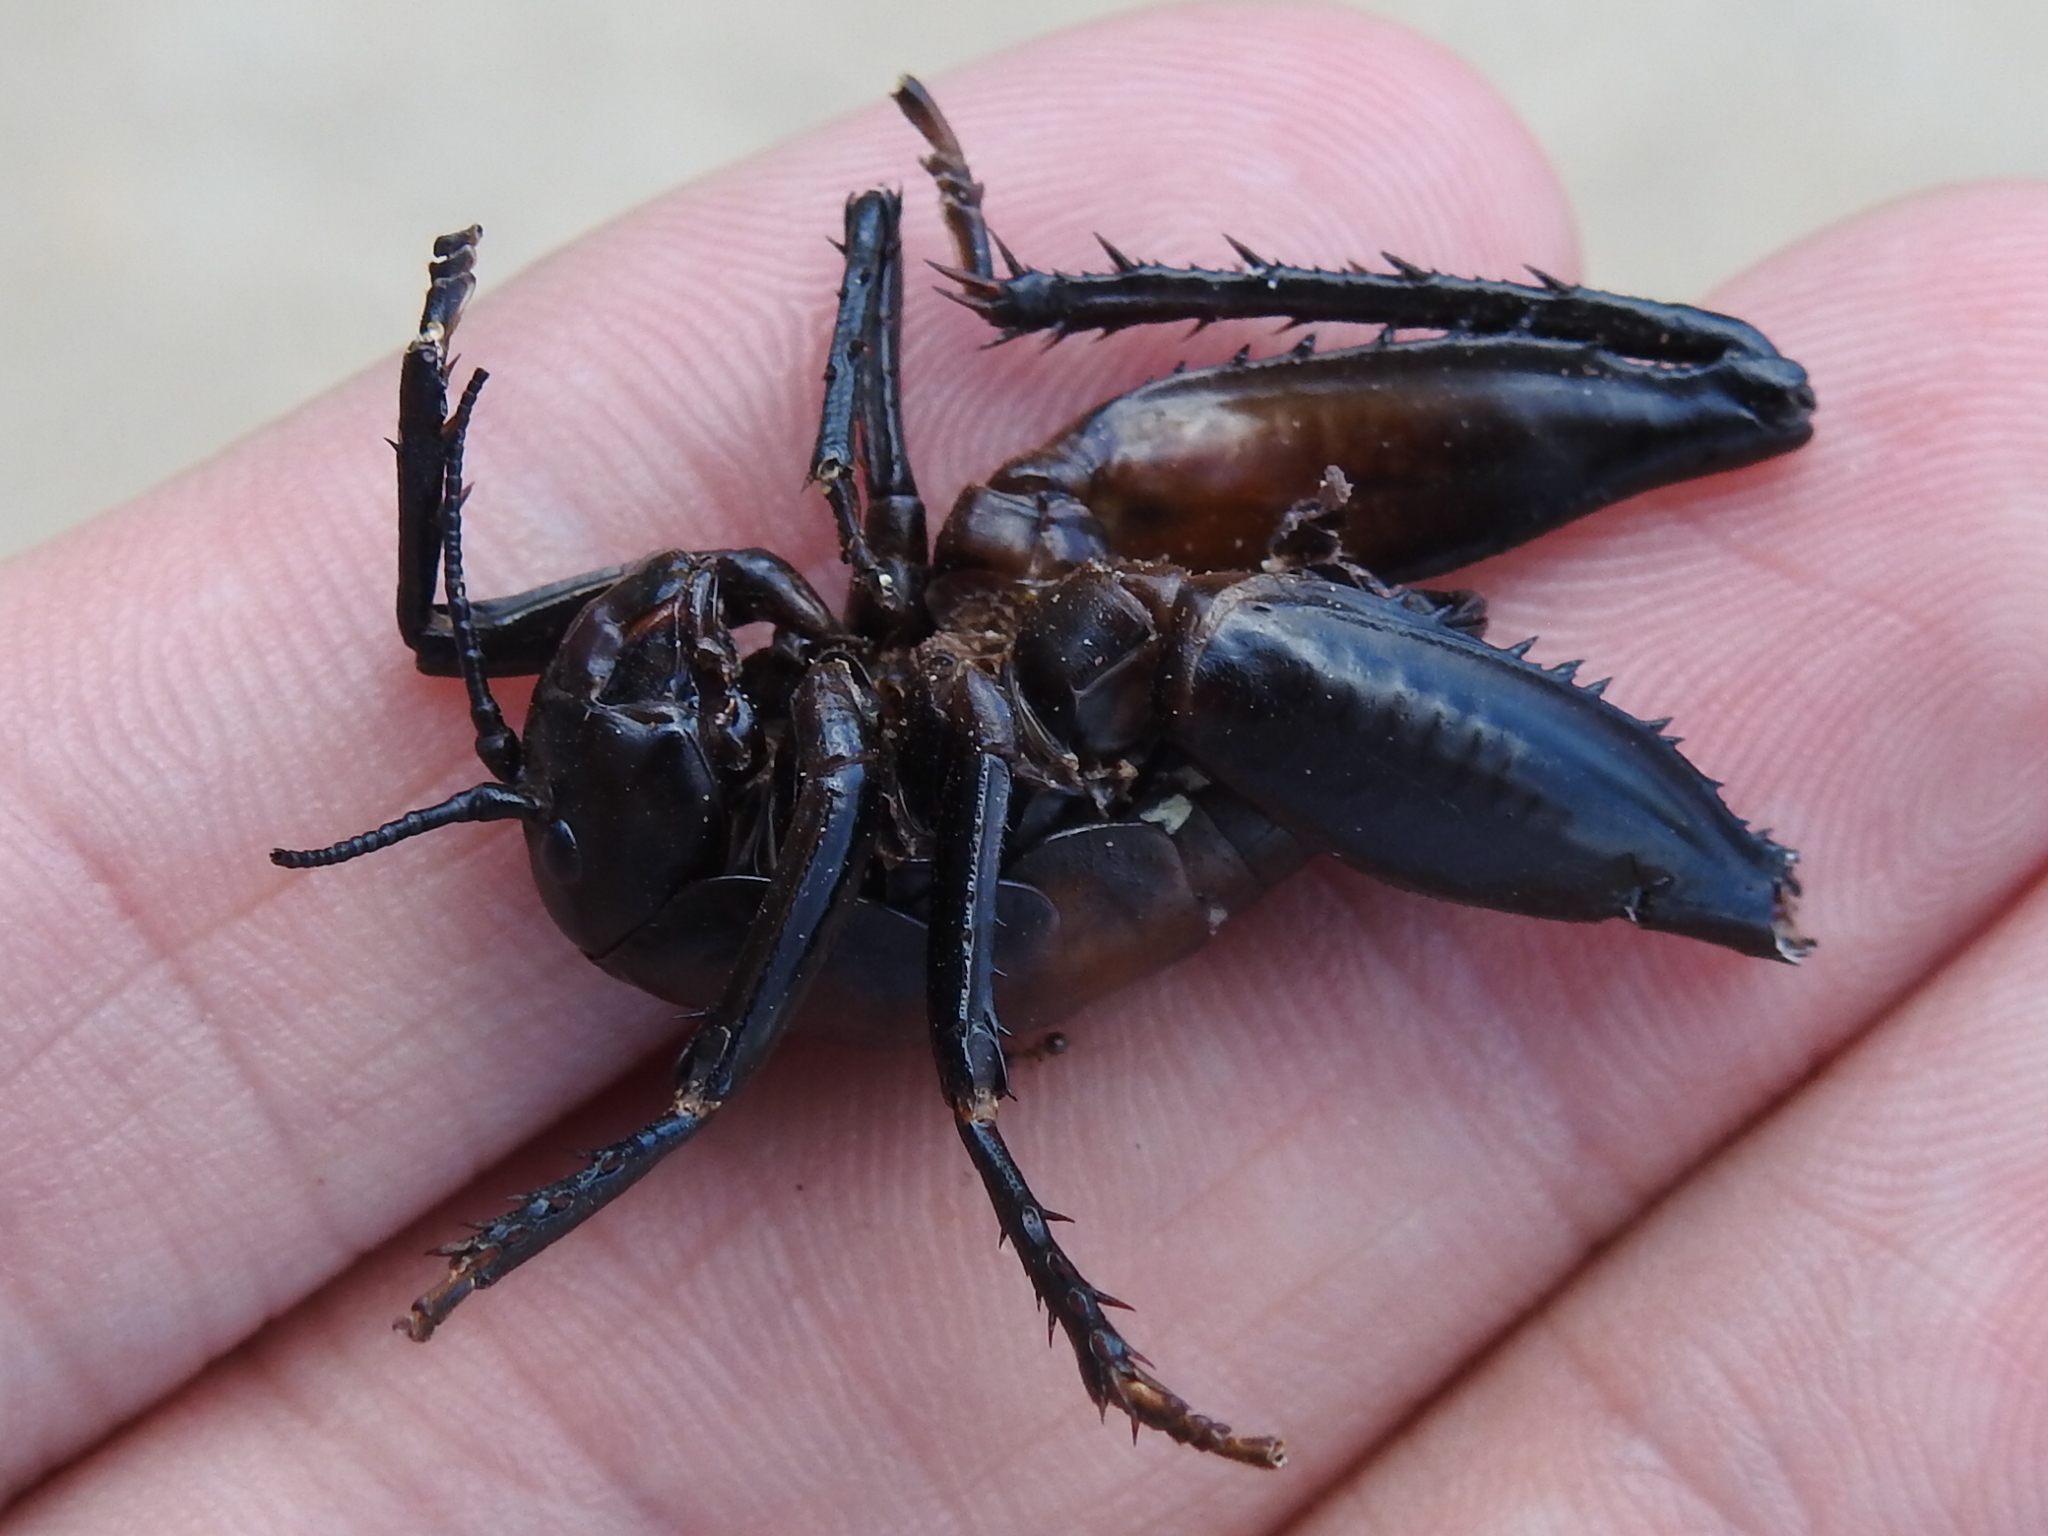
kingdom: Animalia
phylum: Arthropoda
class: Insecta
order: Orthoptera
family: Rhaphidophoridae
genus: Udeopsylla
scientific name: Udeopsylla robusta
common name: Robust camel cricket
